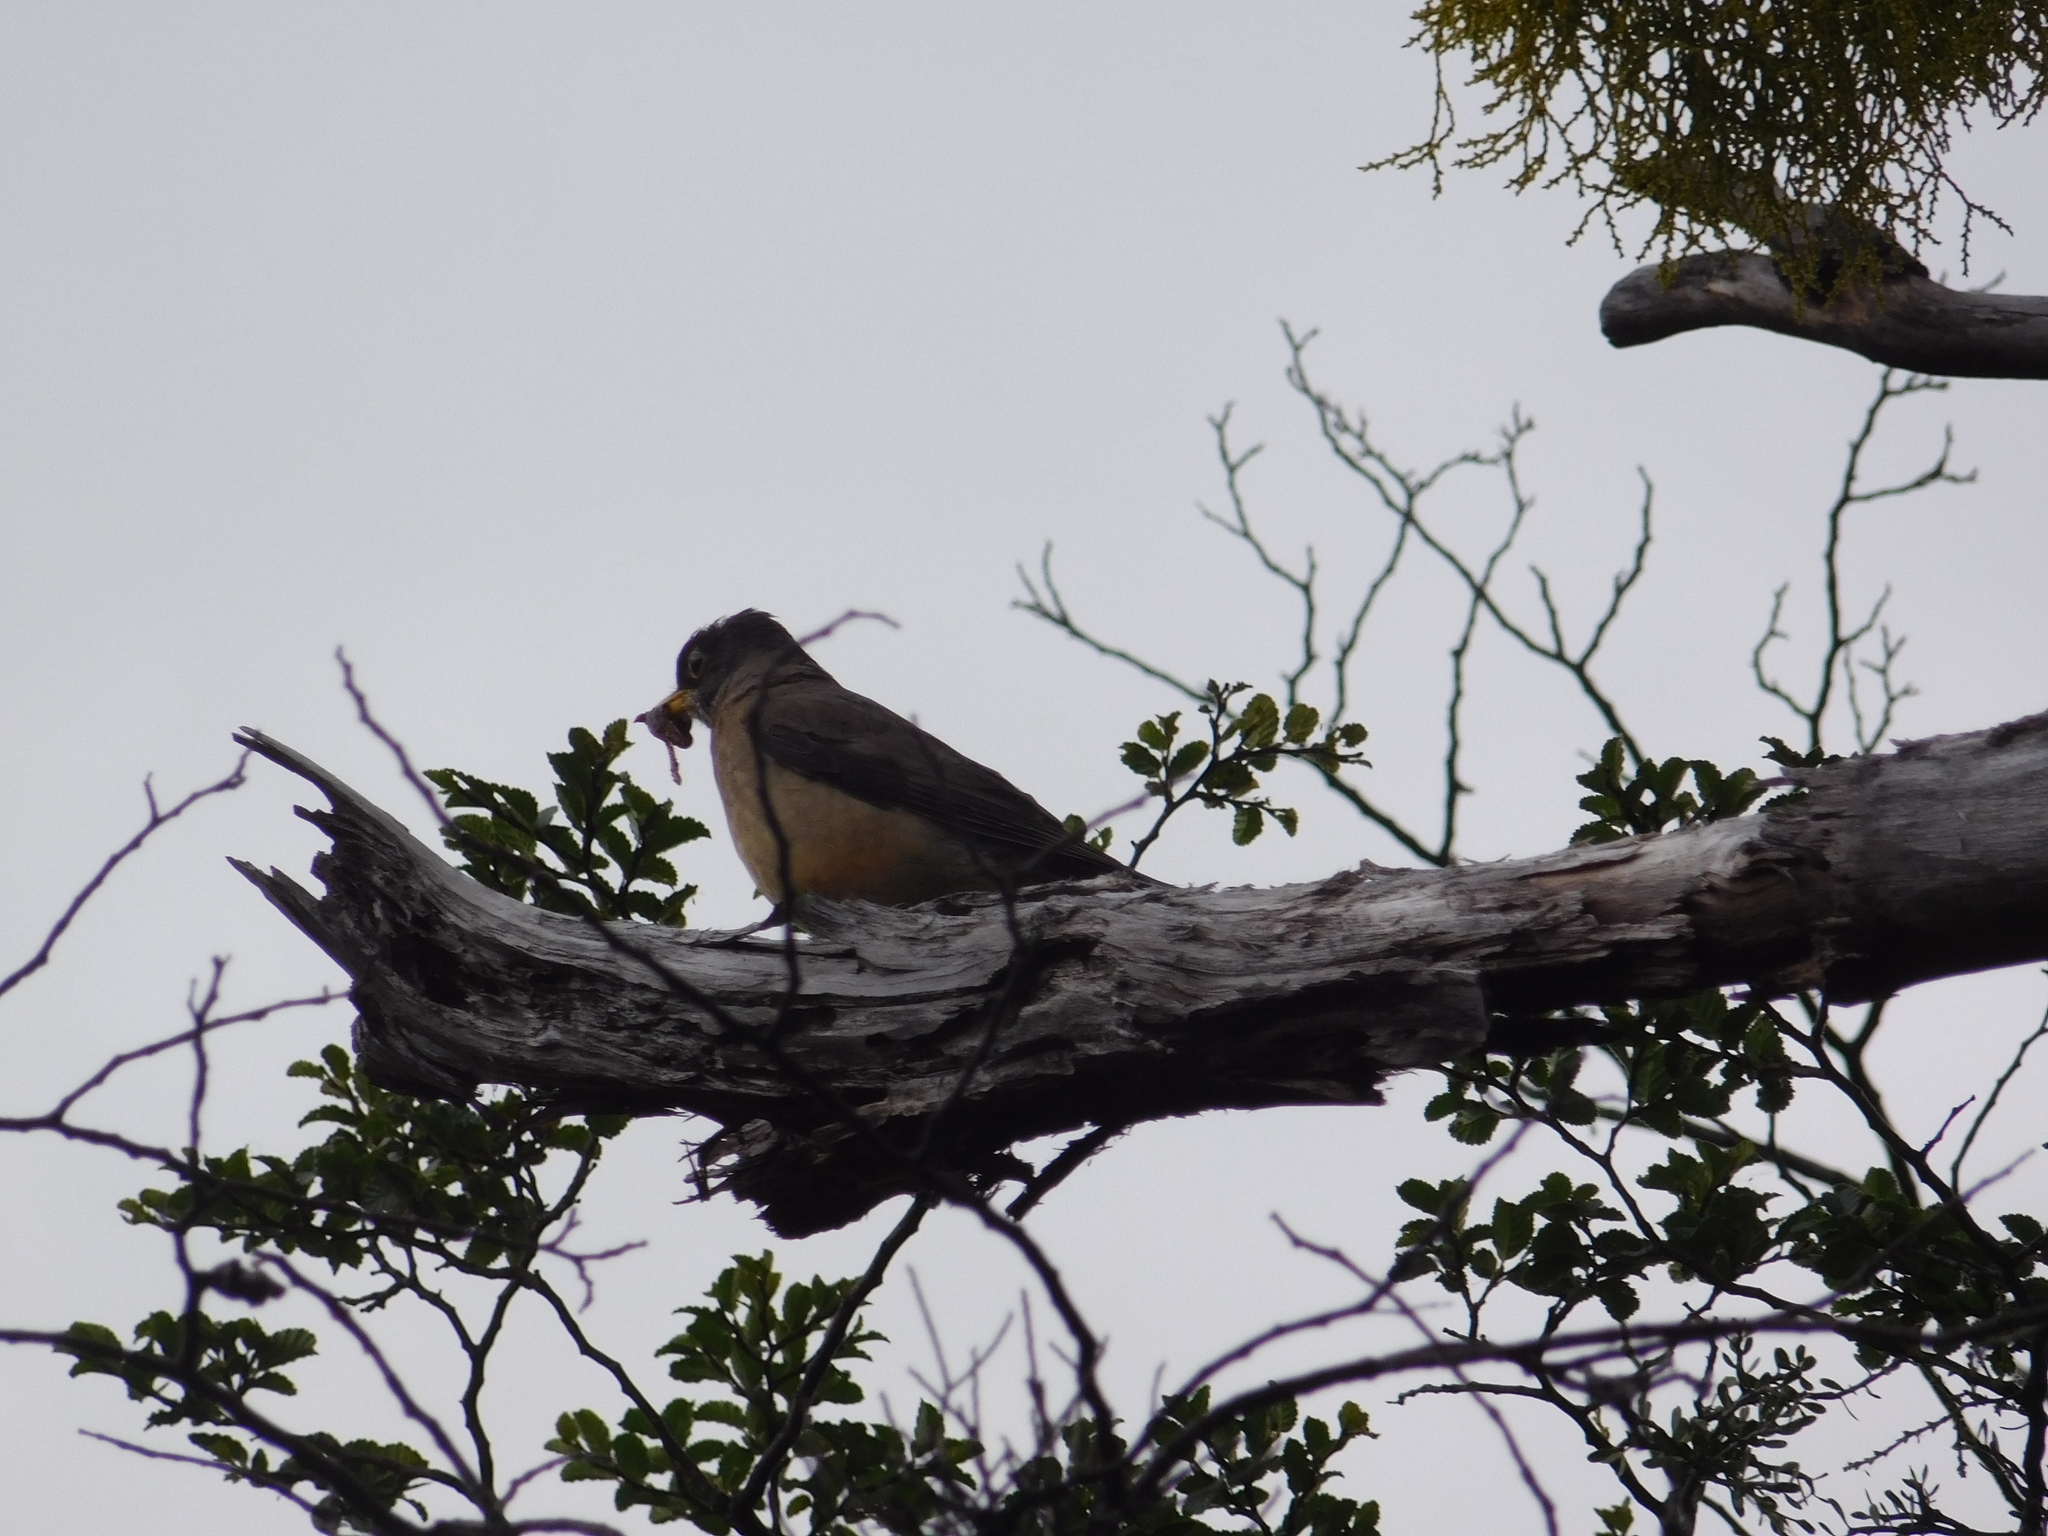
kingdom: Animalia
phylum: Chordata
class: Aves
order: Passeriformes
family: Turdidae
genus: Turdus
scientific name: Turdus falcklandii
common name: Austral thrush
